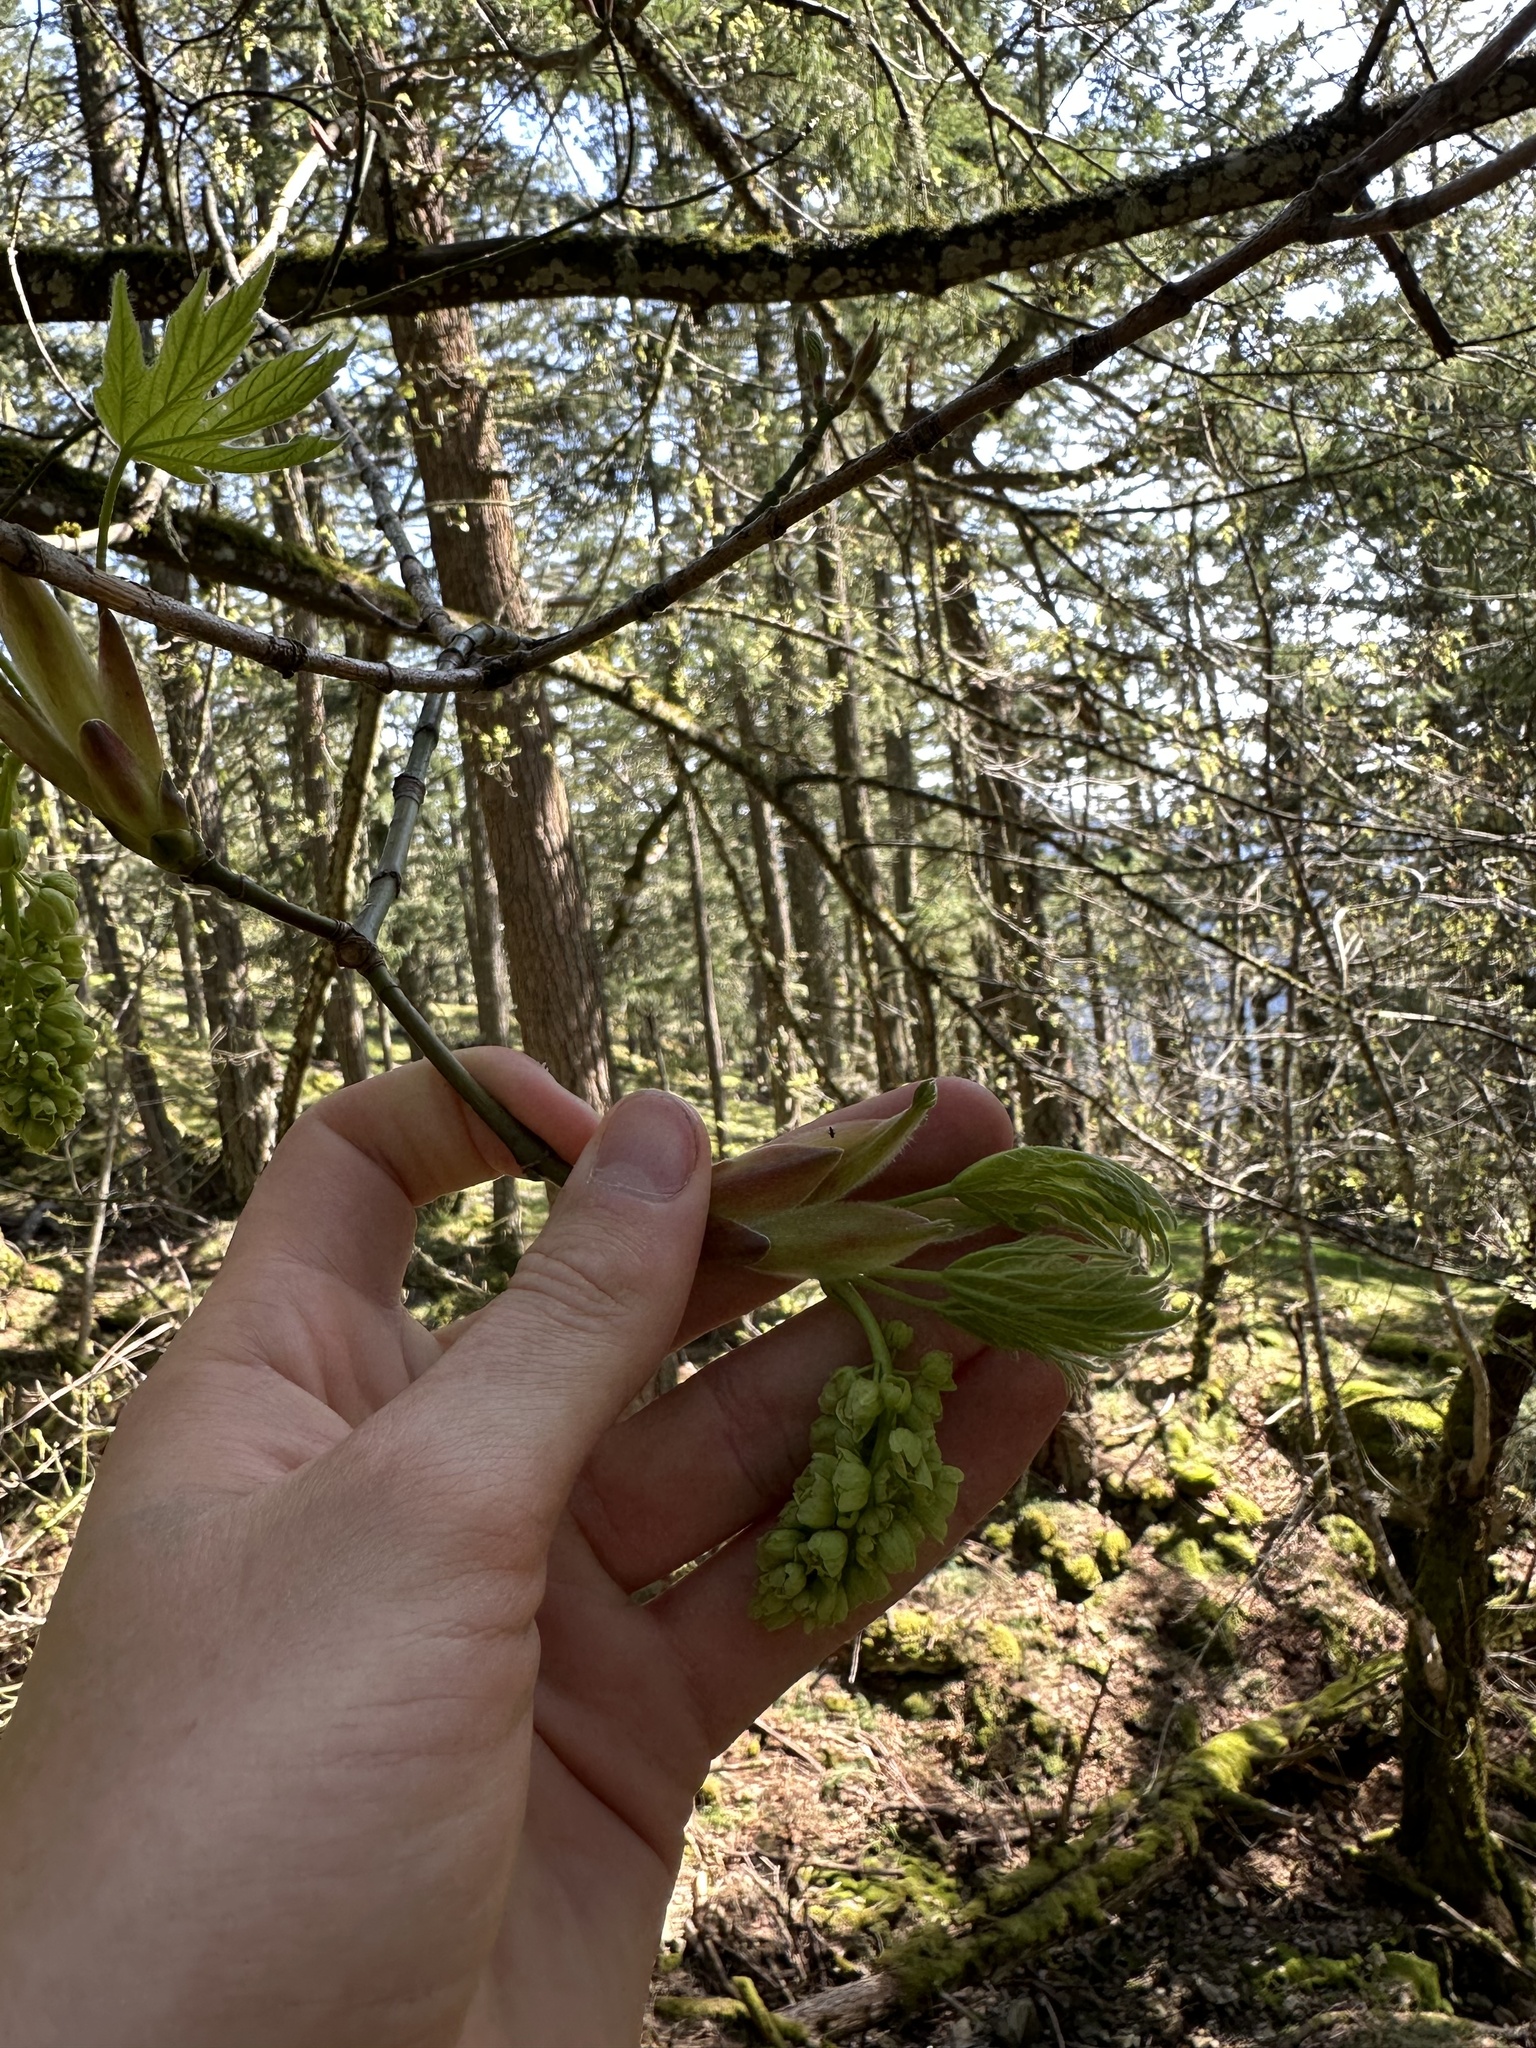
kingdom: Plantae
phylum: Tracheophyta
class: Magnoliopsida
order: Sapindales
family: Sapindaceae
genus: Acer
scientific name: Acer macrophyllum
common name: Oregon maple
